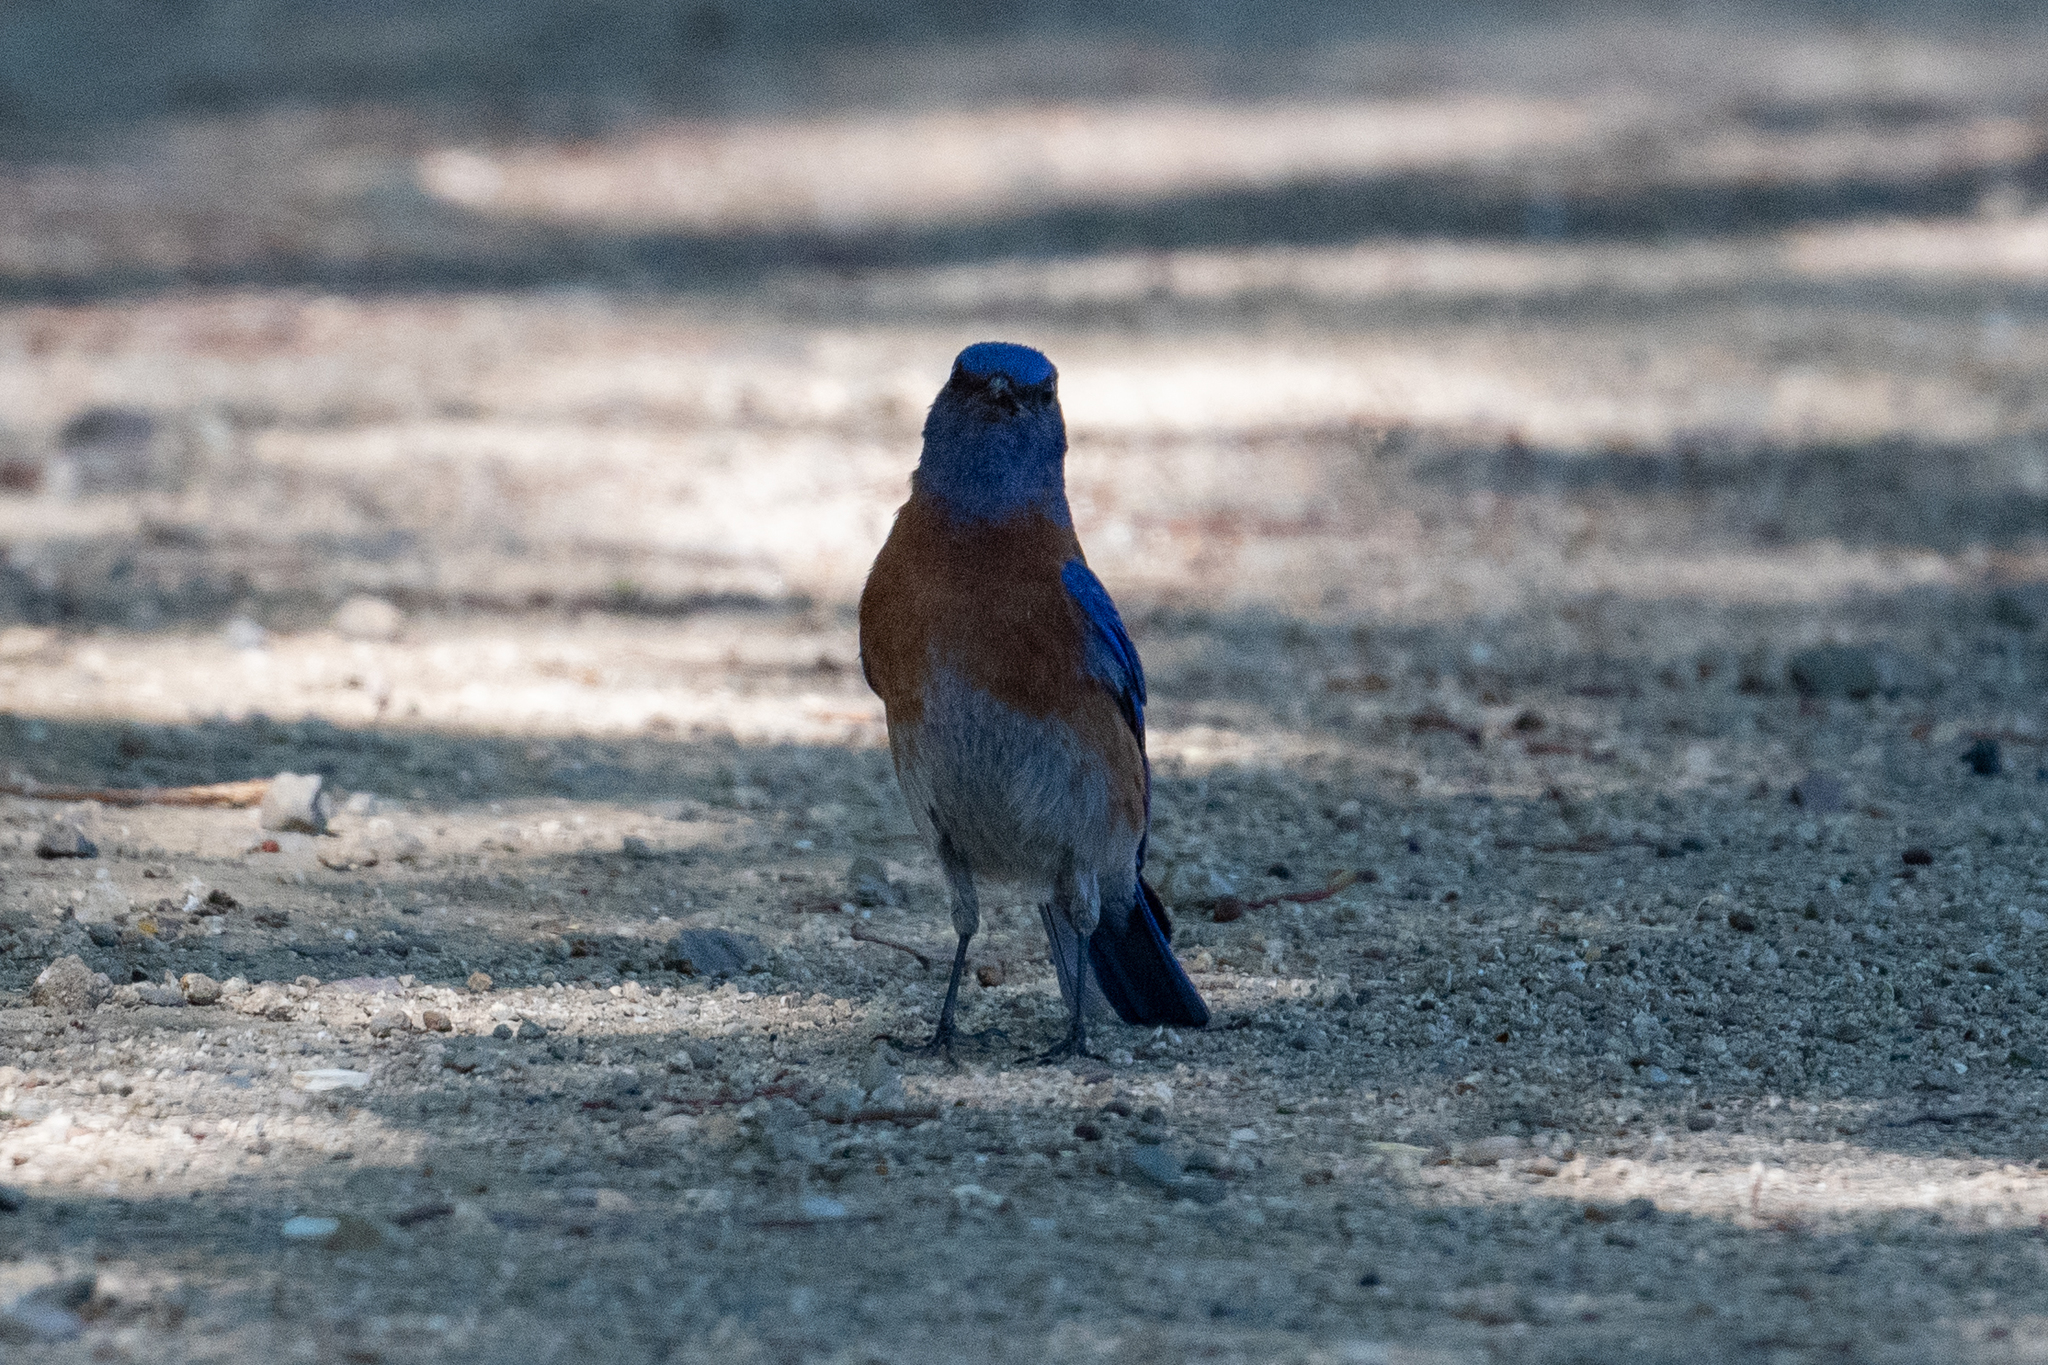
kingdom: Animalia
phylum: Chordata
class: Aves
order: Passeriformes
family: Turdidae
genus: Sialia
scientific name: Sialia mexicana
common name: Western bluebird
